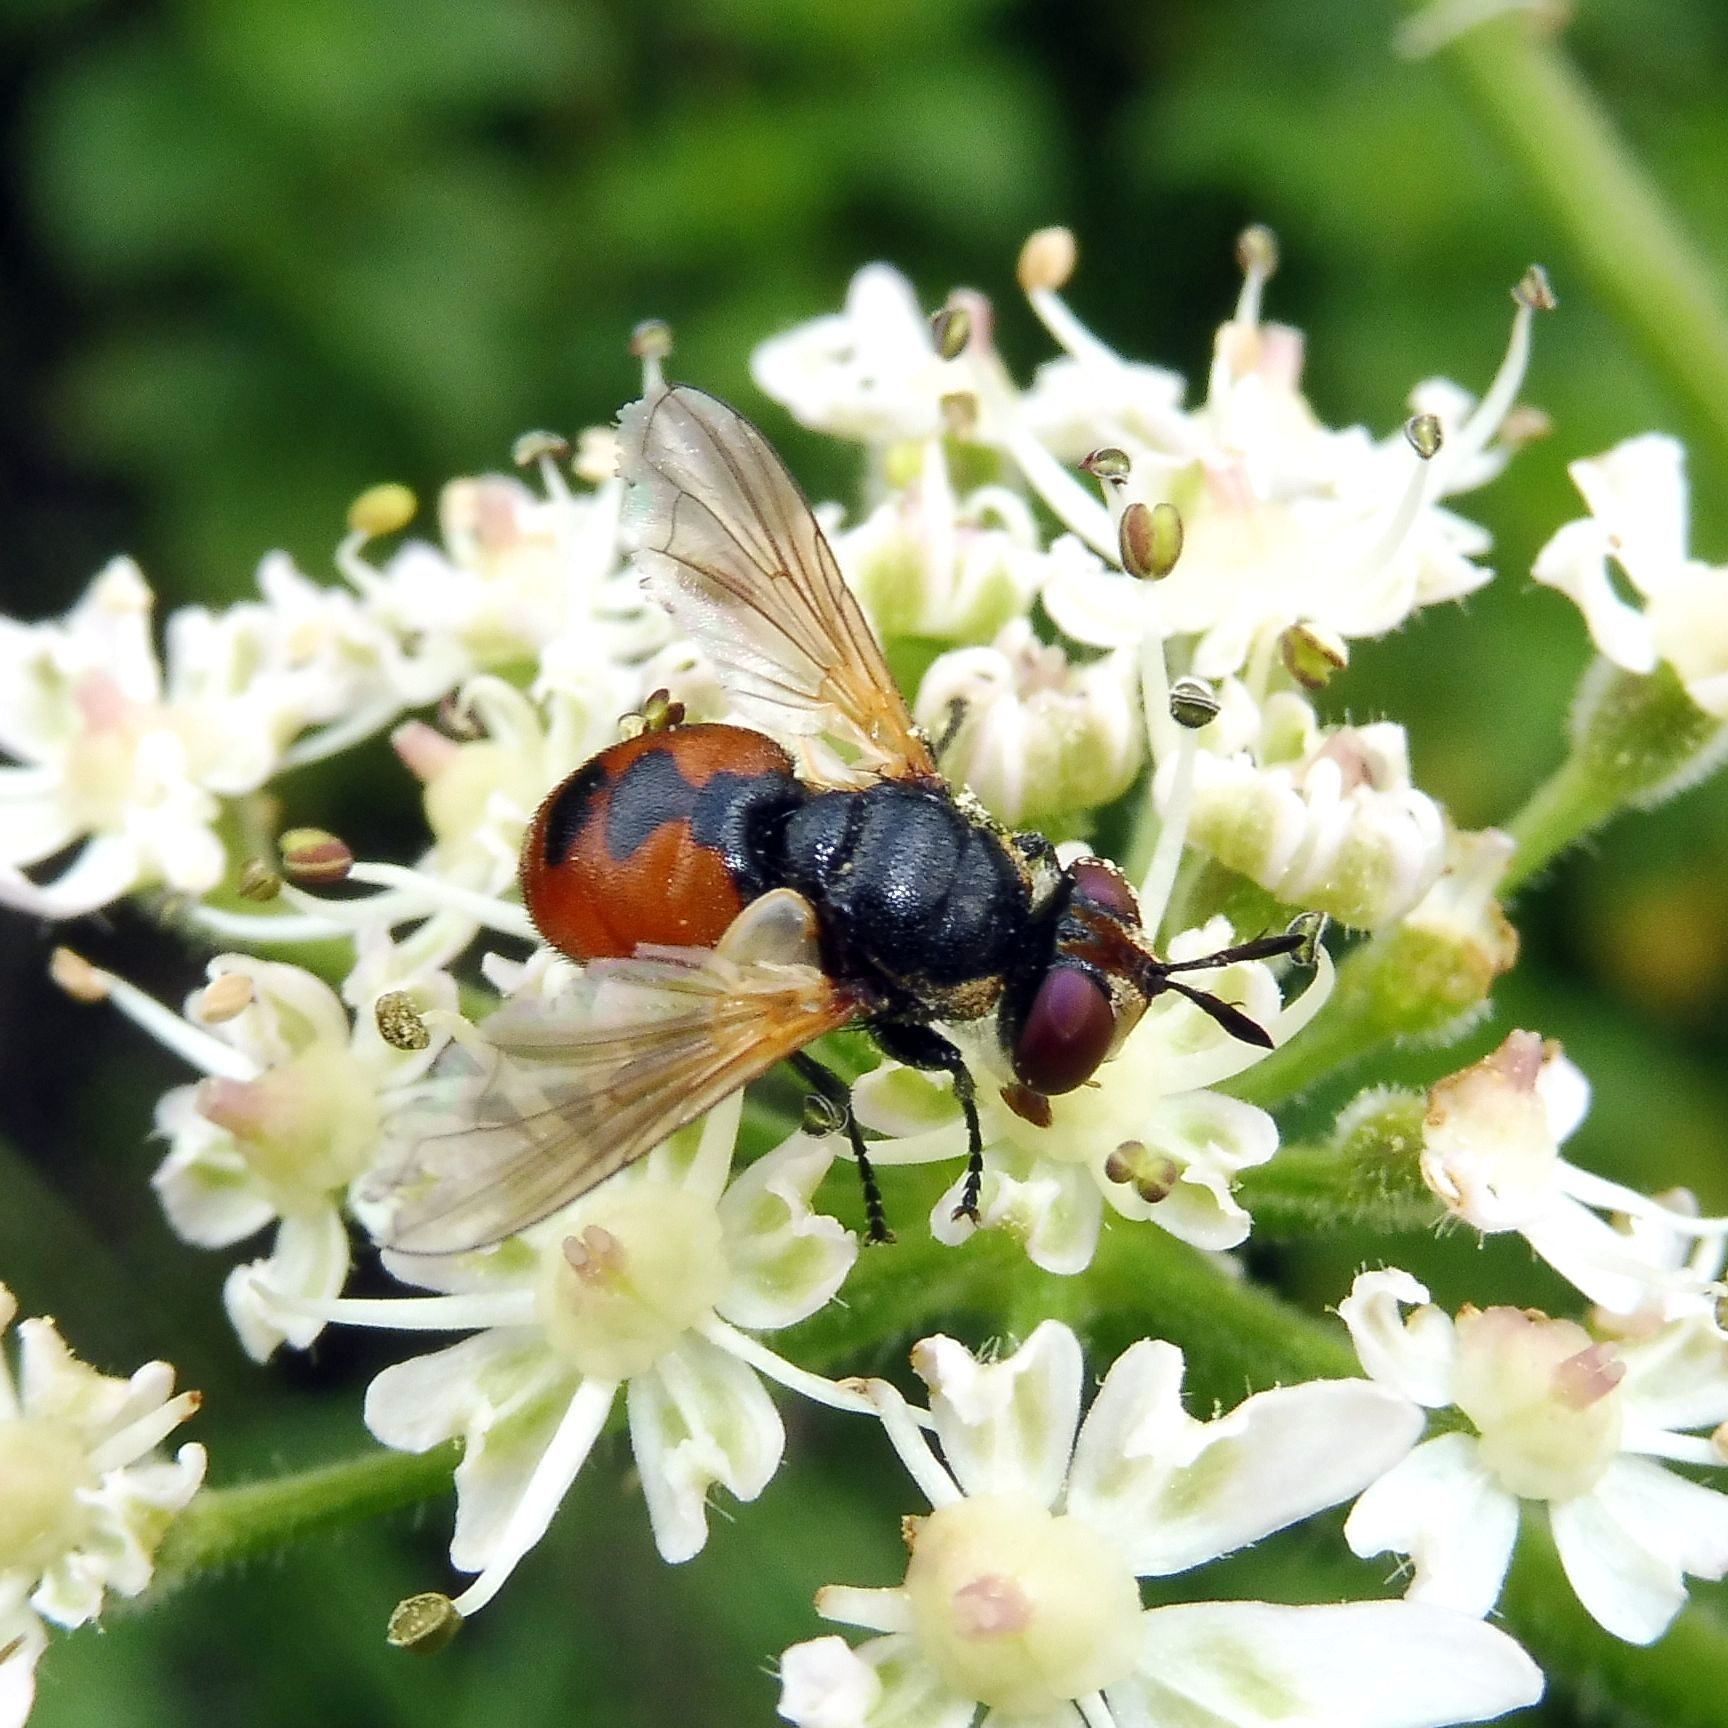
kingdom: Animalia
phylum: Arthropoda
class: Insecta
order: Diptera
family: Tachinidae
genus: Gymnosoma
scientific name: Gymnosoma rotundatum
